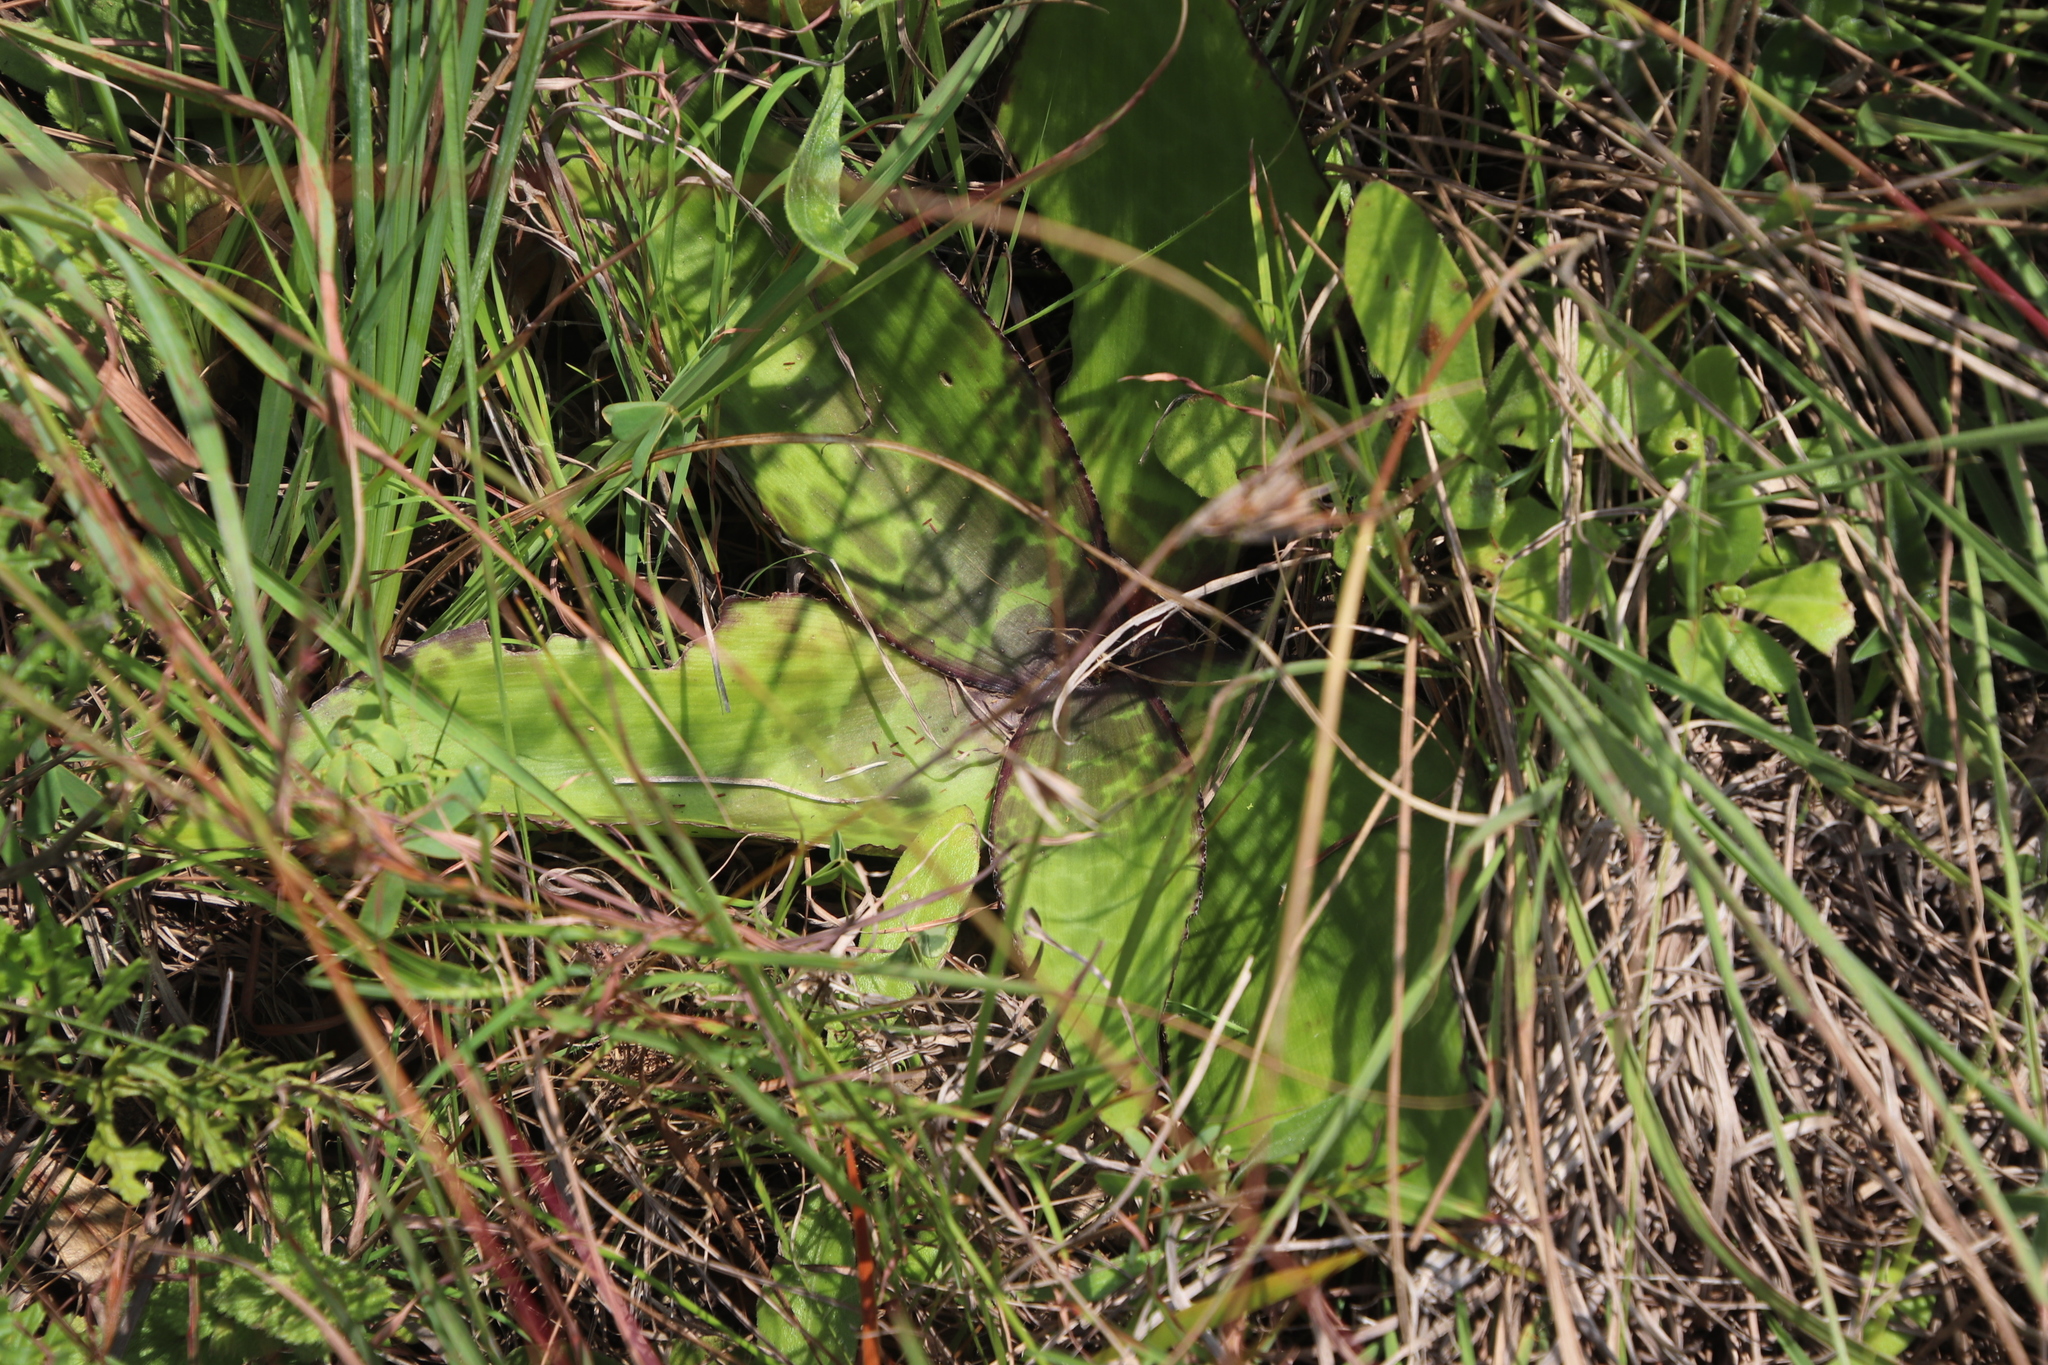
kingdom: Plantae
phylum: Tracheophyta
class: Liliopsida
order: Asparagales
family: Asparagaceae
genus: Ledebouria
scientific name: Ledebouria revoluta
